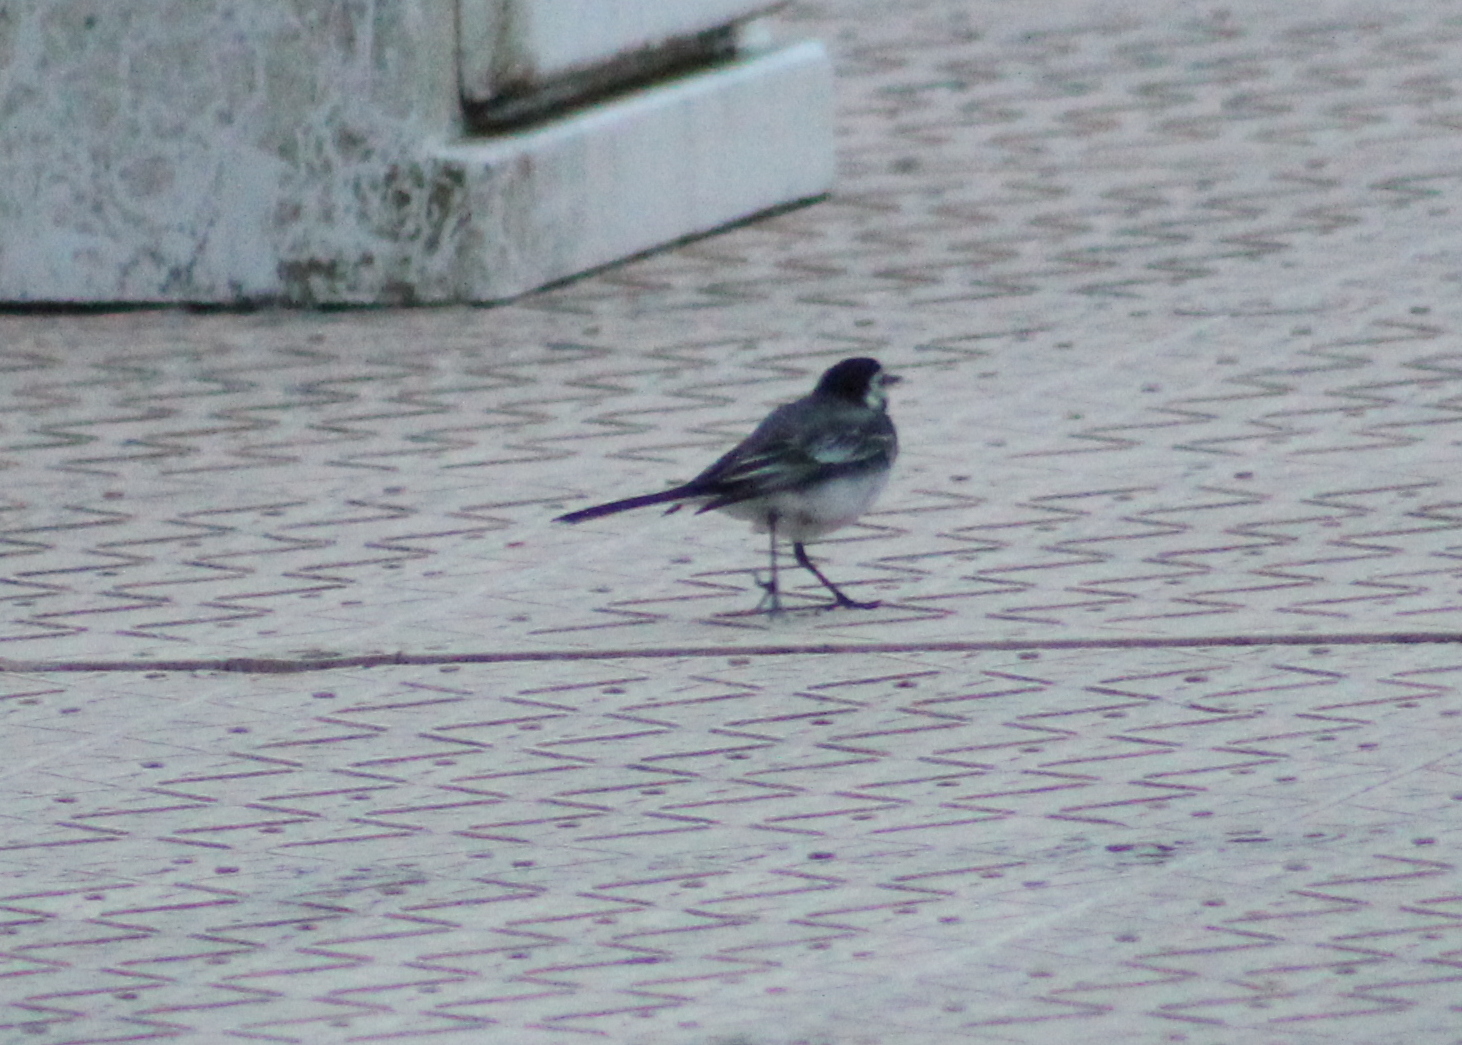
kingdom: Animalia
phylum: Chordata
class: Aves
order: Passeriformes
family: Motacillidae
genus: Motacilla
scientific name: Motacilla alba
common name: White wagtail
